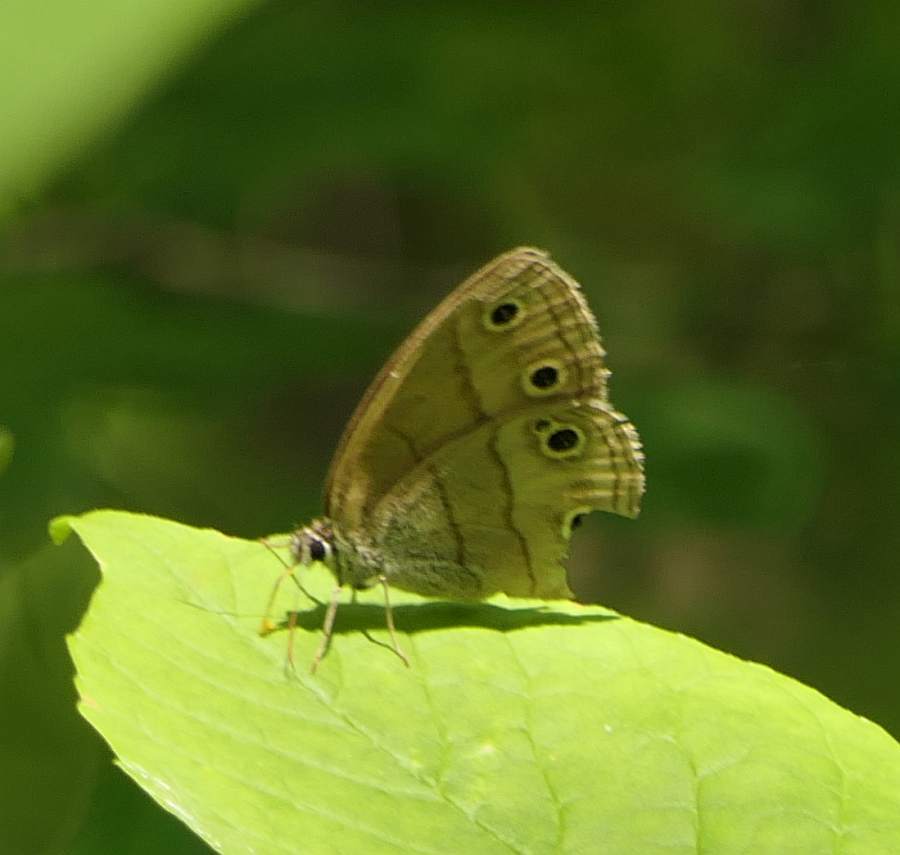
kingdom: Animalia
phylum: Arthropoda
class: Insecta
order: Lepidoptera
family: Nymphalidae
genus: Euptychia
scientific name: Euptychia cymela
